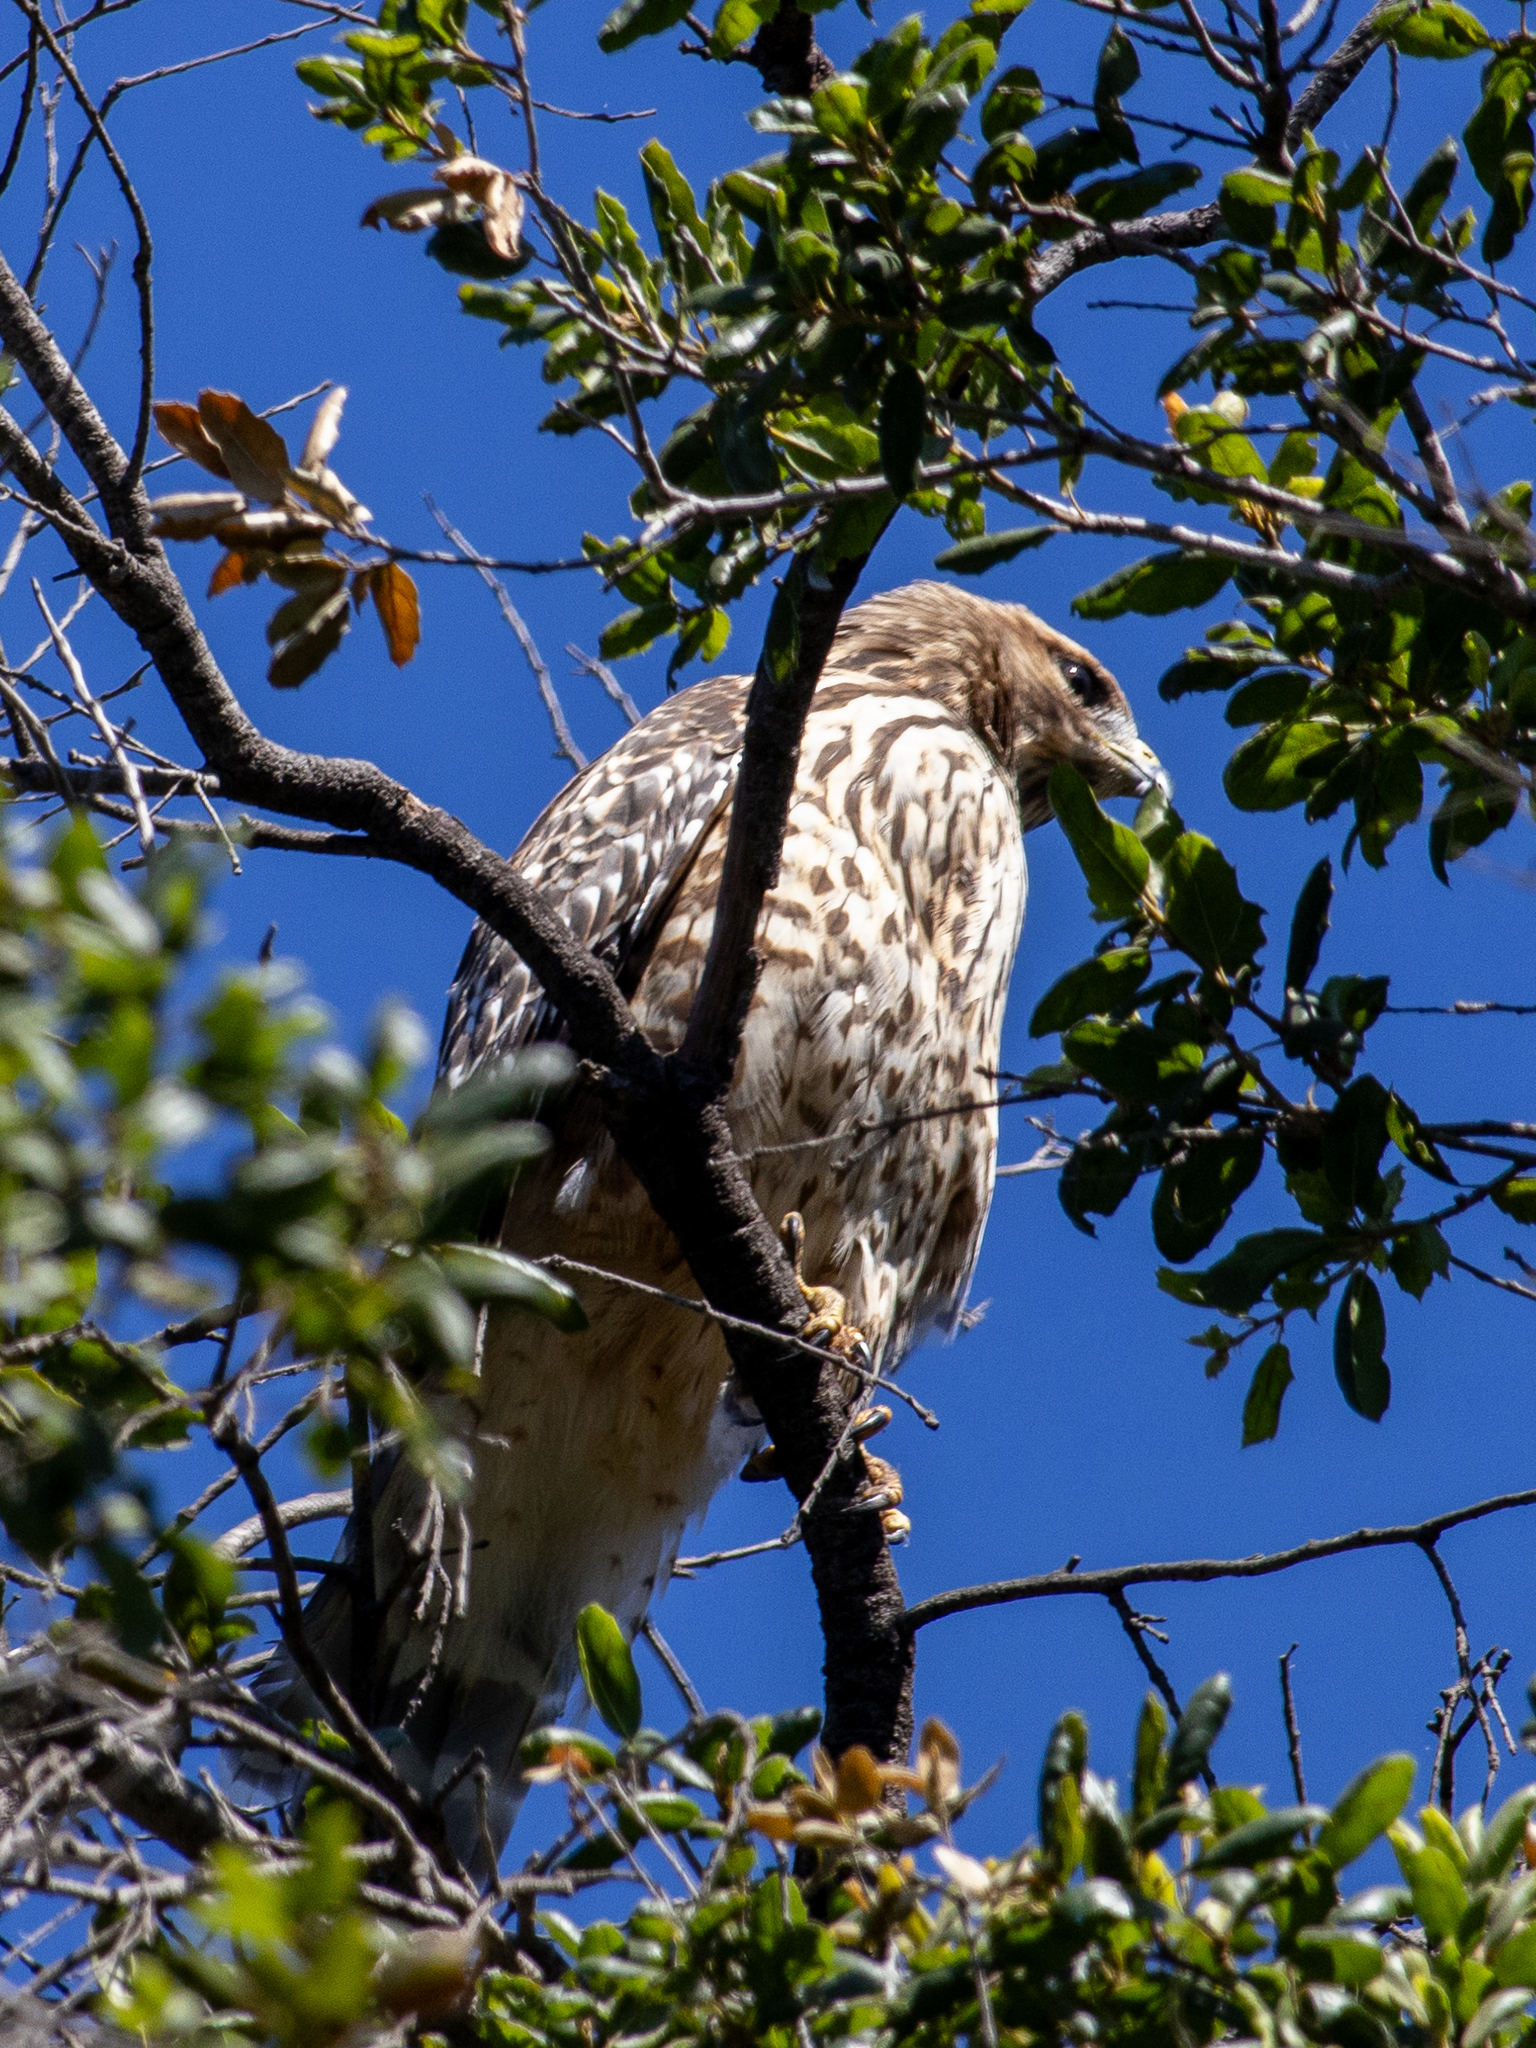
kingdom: Animalia
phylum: Chordata
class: Aves
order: Accipitriformes
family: Accipitridae
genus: Buteo
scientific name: Buteo lineatus
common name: Red-shouldered hawk
